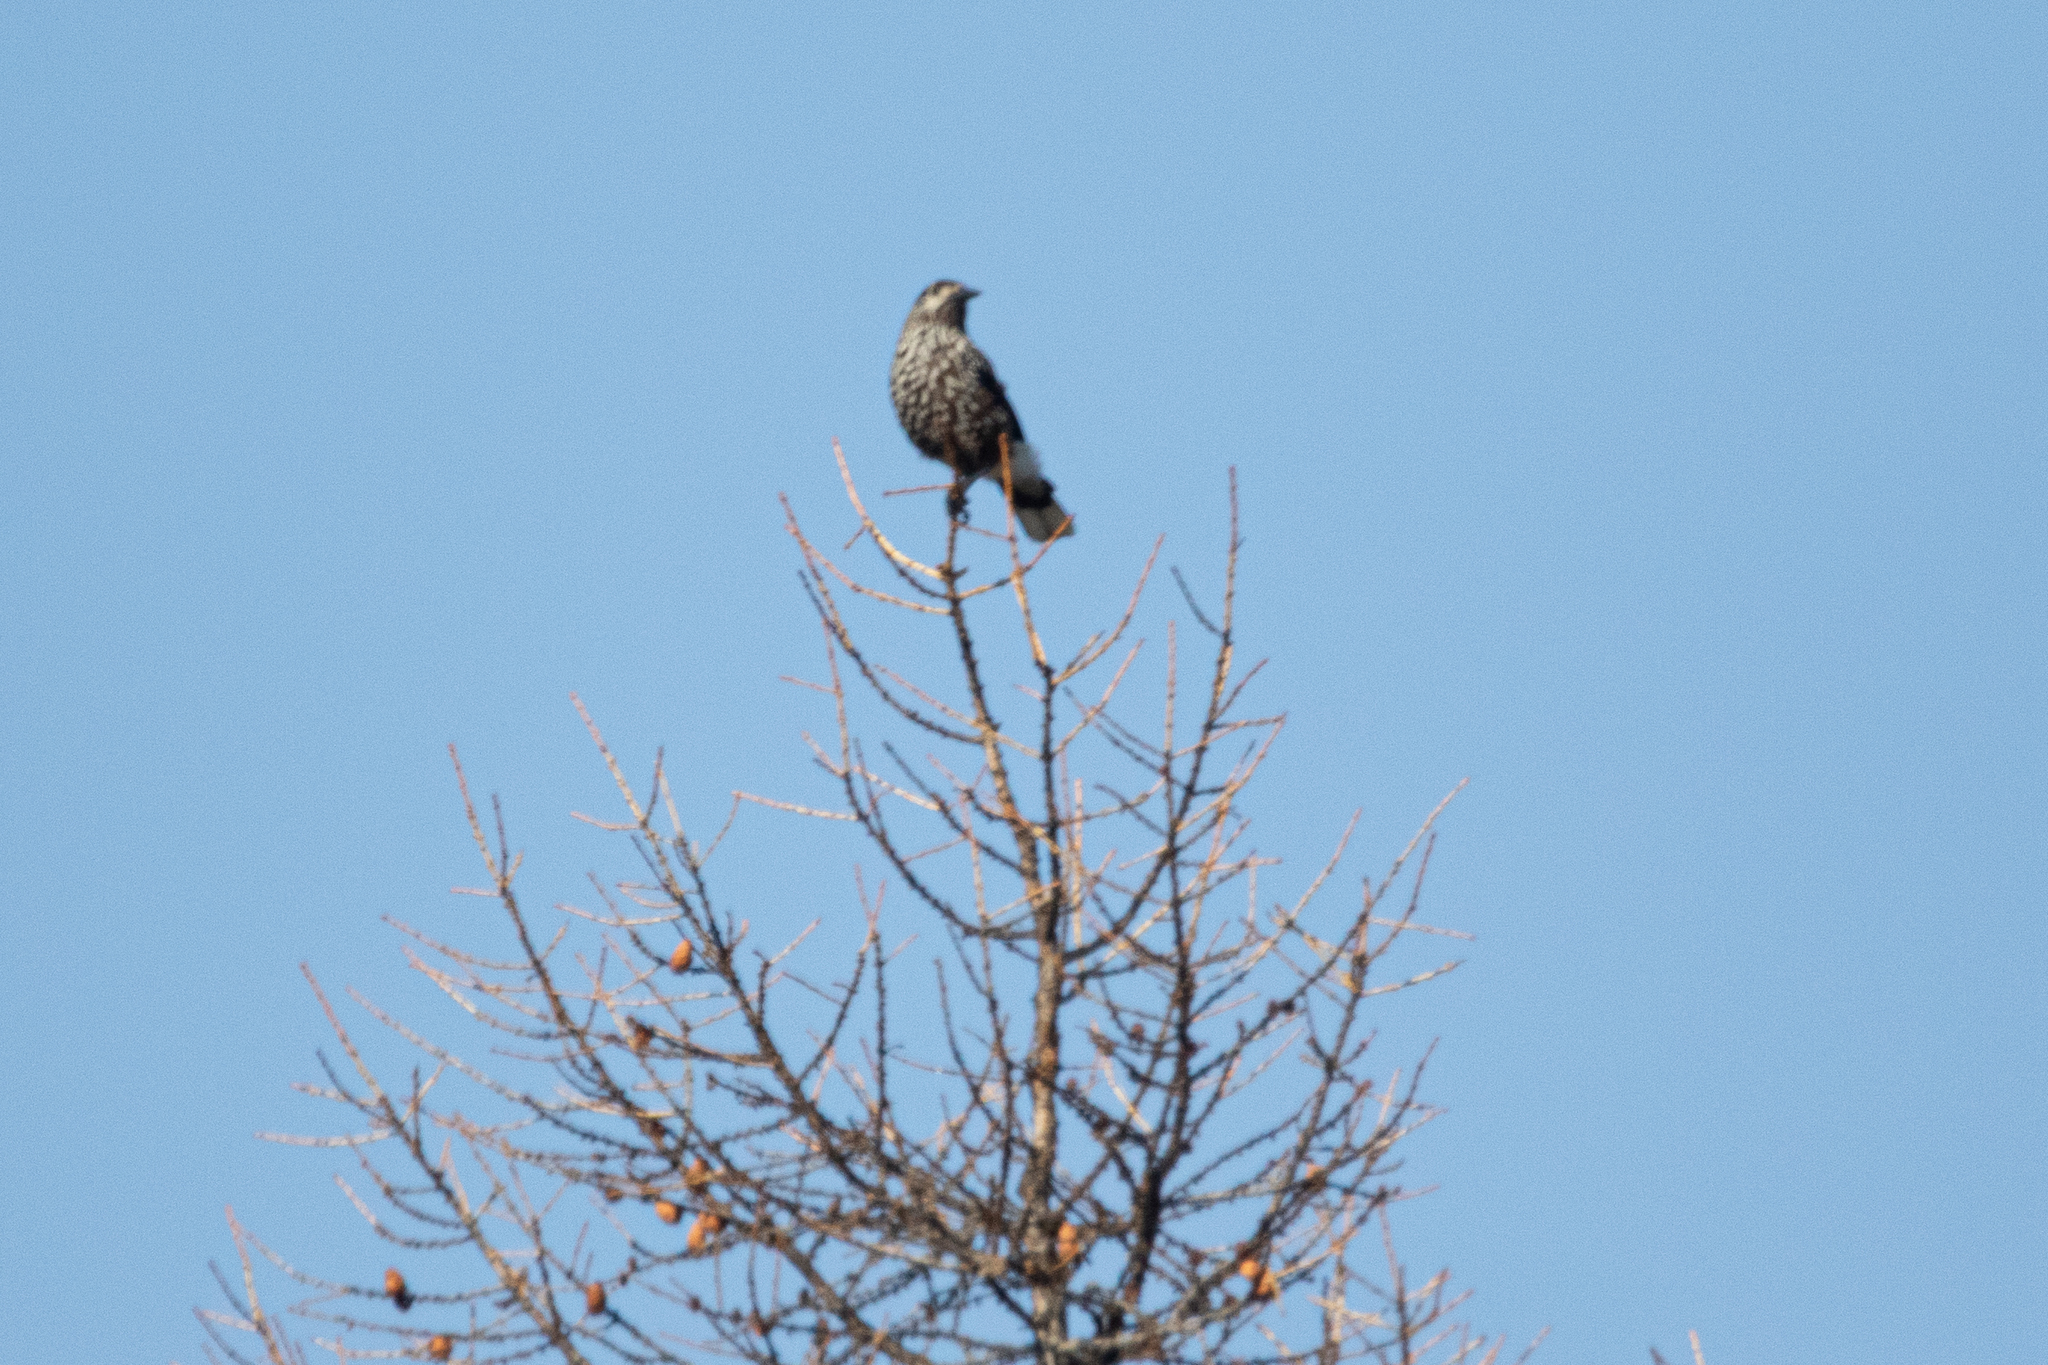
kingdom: Animalia
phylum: Chordata
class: Aves
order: Passeriformes
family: Corvidae
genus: Nucifraga
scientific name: Nucifraga caryocatactes
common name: Spotted nutcracker
